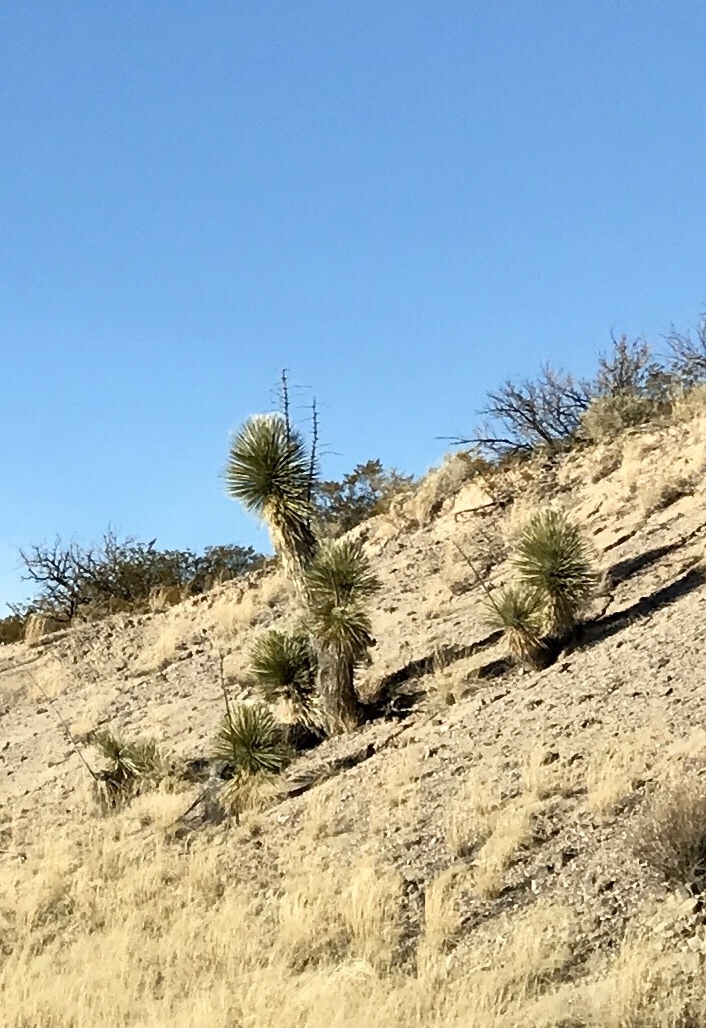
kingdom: Plantae
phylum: Tracheophyta
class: Liliopsida
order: Asparagales
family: Asparagaceae
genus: Yucca
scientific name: Yucca elata
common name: Palmella
